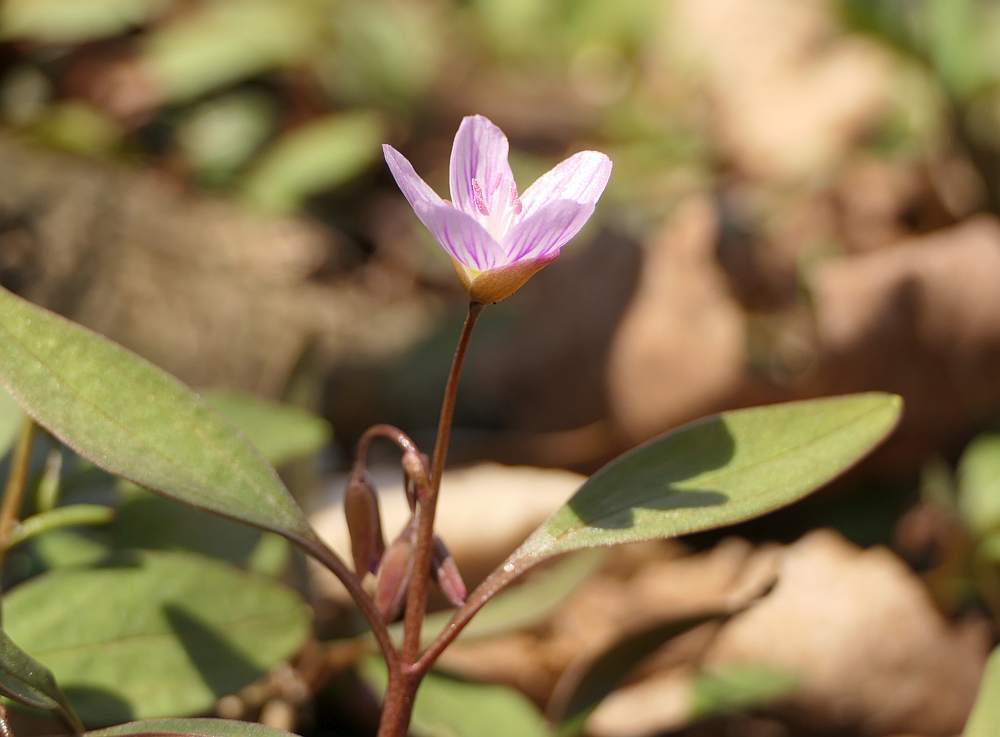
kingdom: Plantae
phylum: Tracheophyta
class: Magnoliopsida
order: Caryophyllales
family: Montiaceae
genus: Claytonia
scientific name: Claytonia caroliniana
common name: Carolina spring beauty
